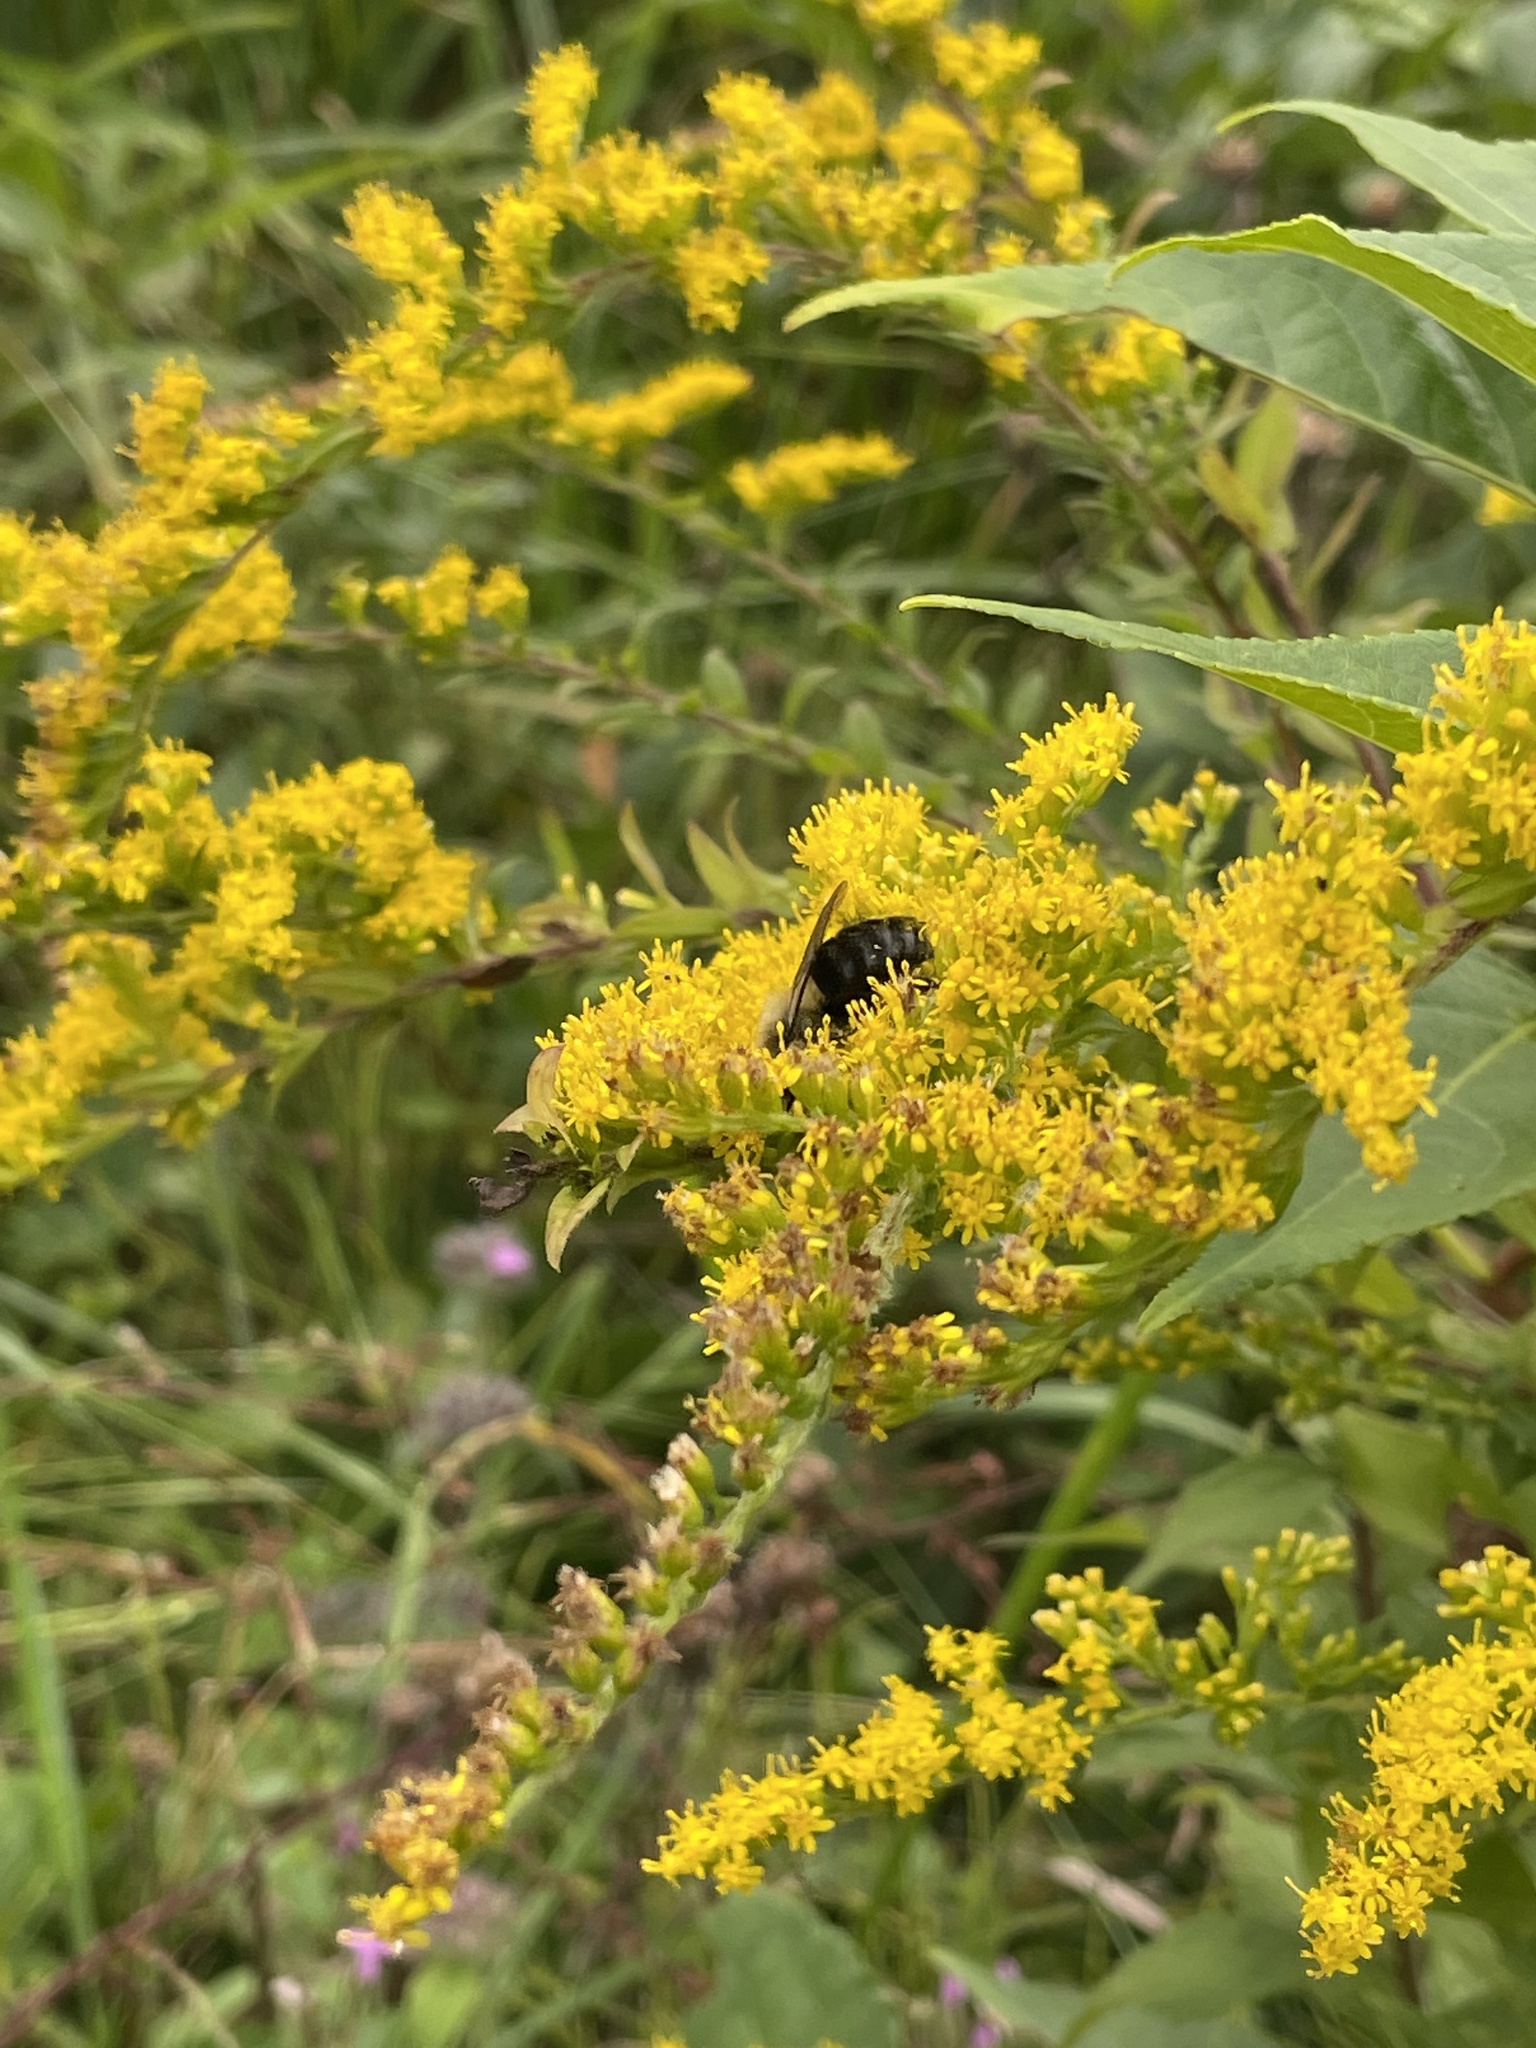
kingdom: Animalia
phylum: Arthropoda
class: Insecta
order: Hymenoptera
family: Apidae
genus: Bombus
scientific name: Bombus impatiens
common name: Common eastern bumble bee
